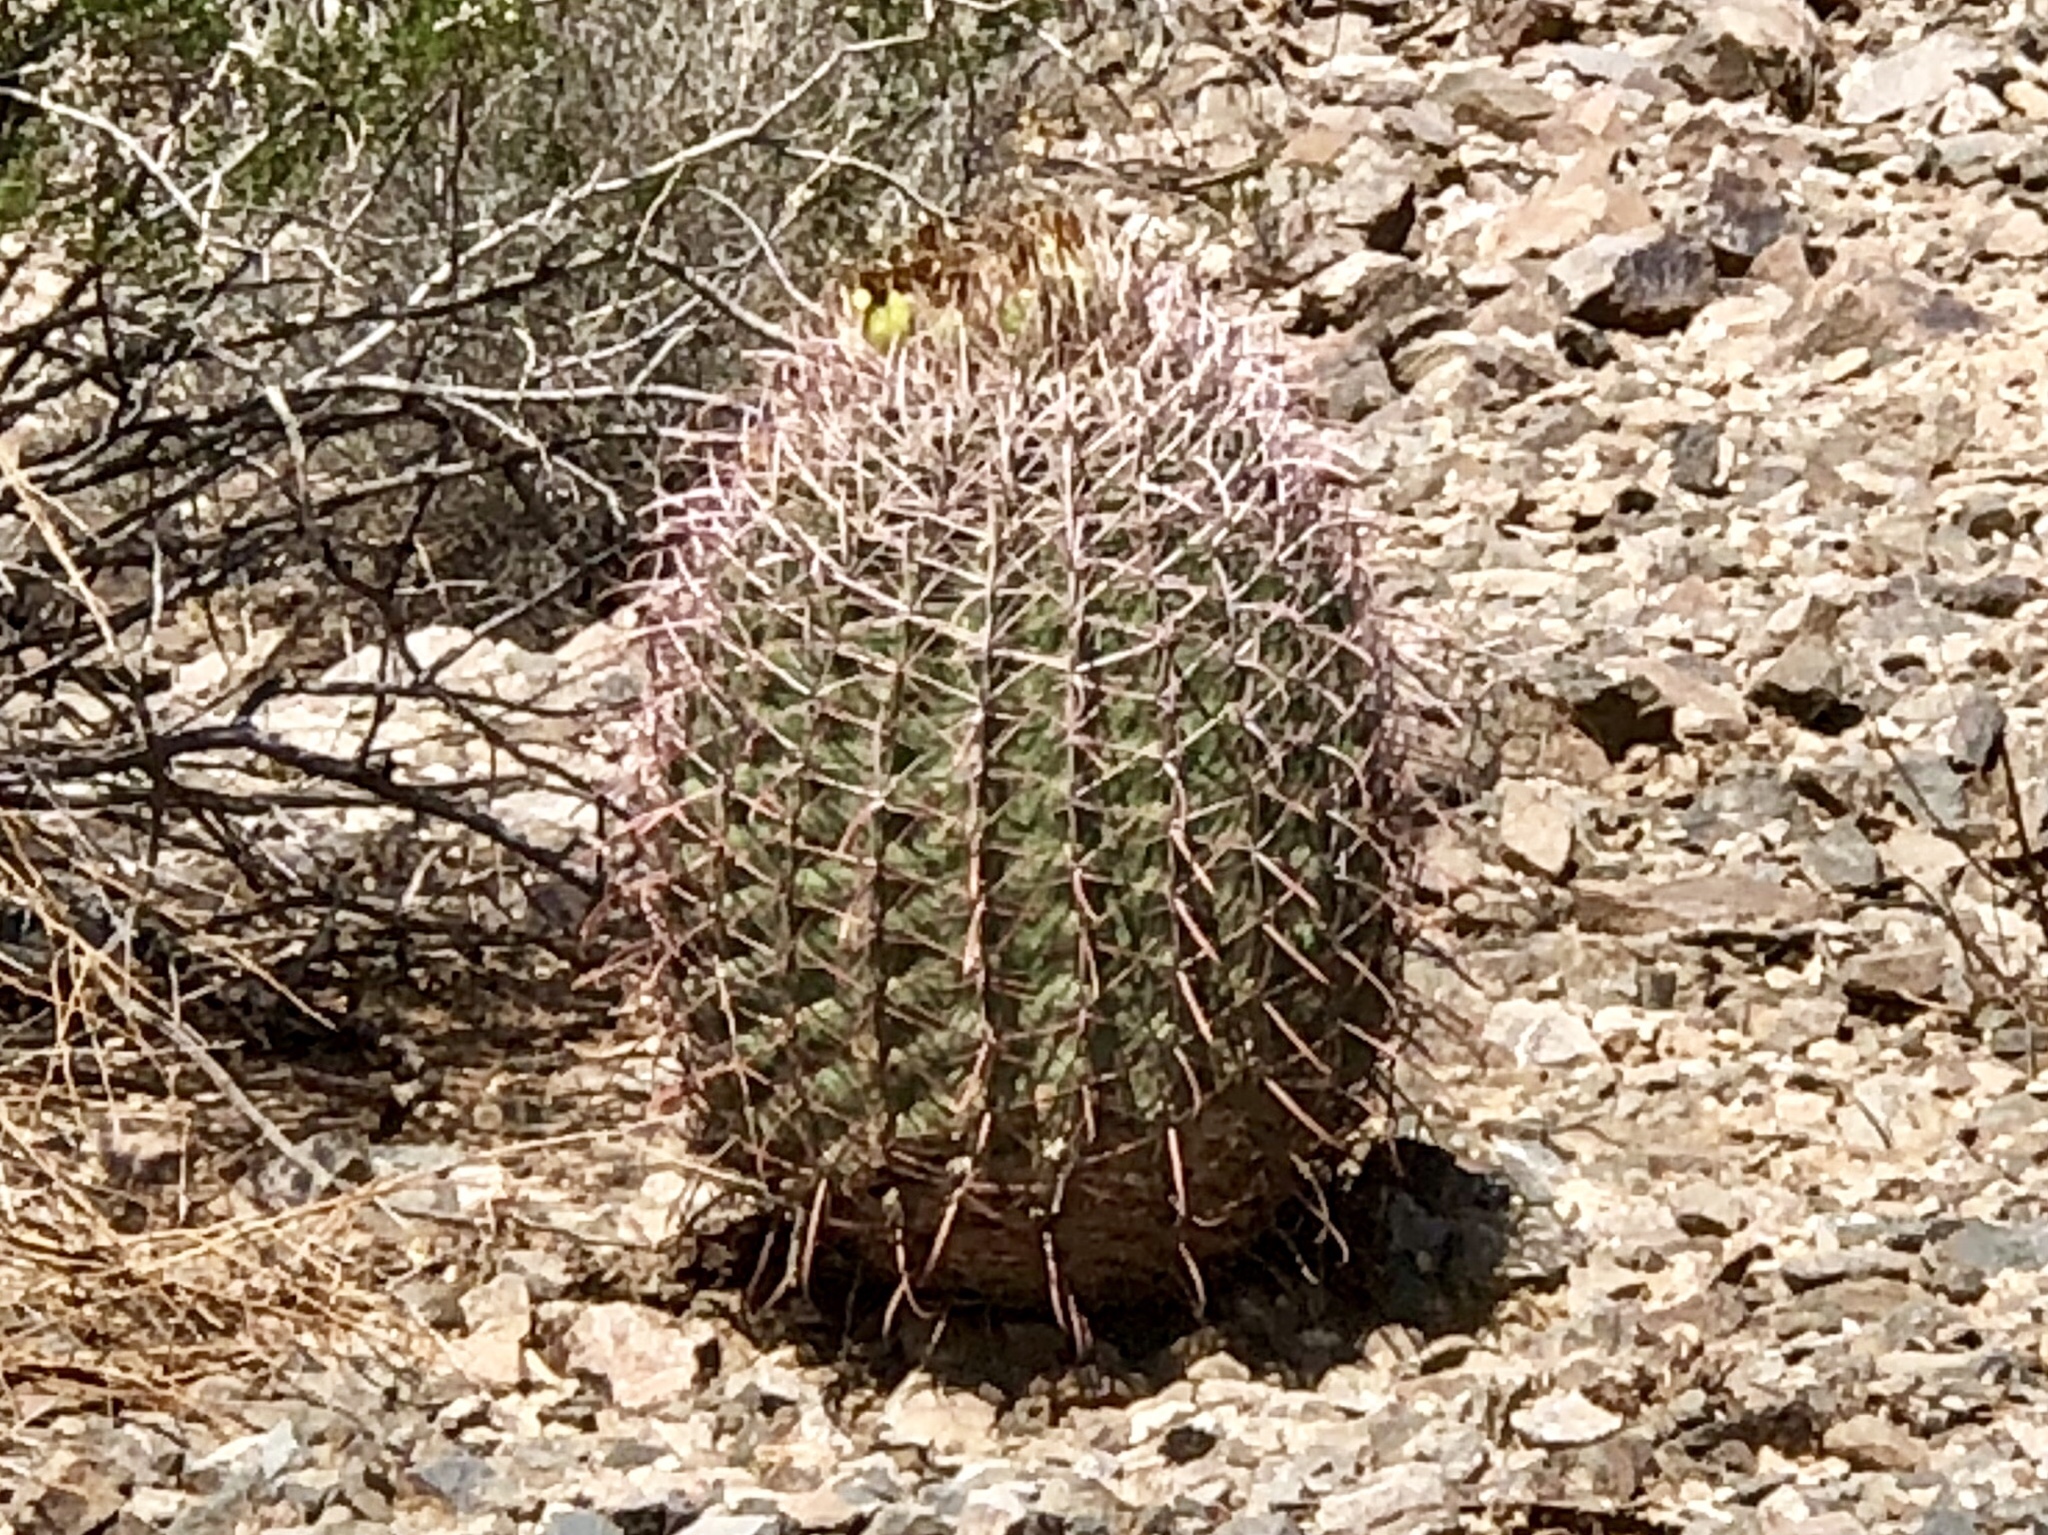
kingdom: Plantae
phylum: Tracheophyta
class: Magnoliopsida
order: Caryophyllales
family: Cactaceae
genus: Ferocactus
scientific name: Ferocactus cylindraceus
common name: California barrel cactus
